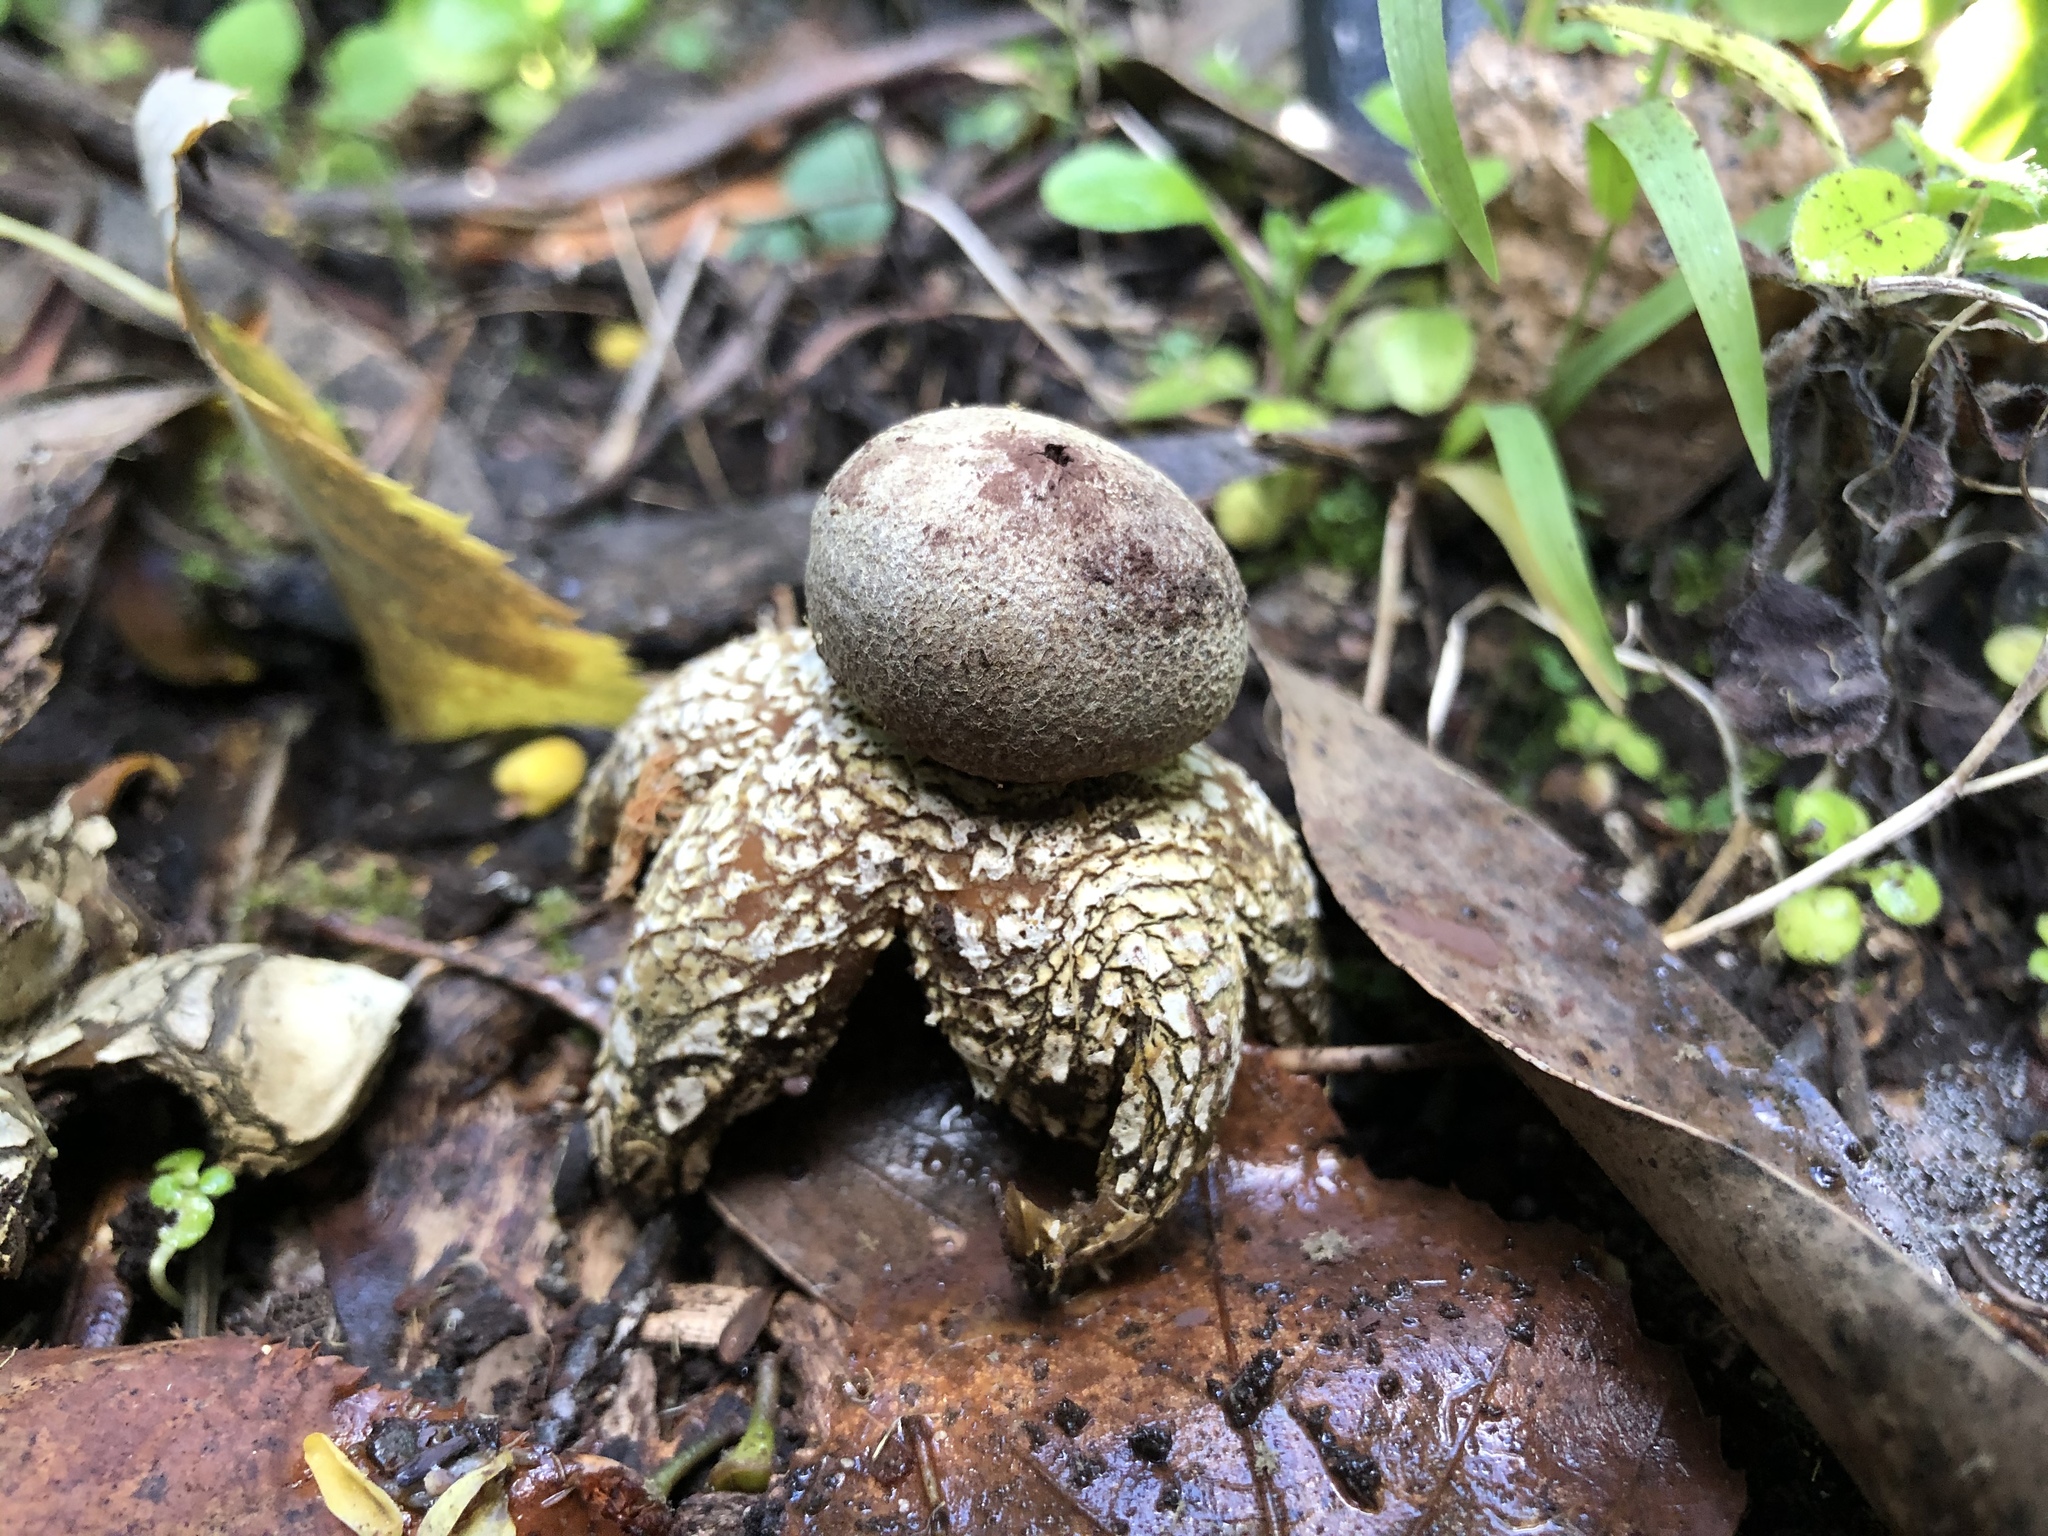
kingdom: Fungi
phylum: Basidiomycota
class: Agaricomycetes
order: Boletales
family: Diplocystidiaceae
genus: Astraeus
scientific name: Astraeus hygrometricus
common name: Barometer earthstar
